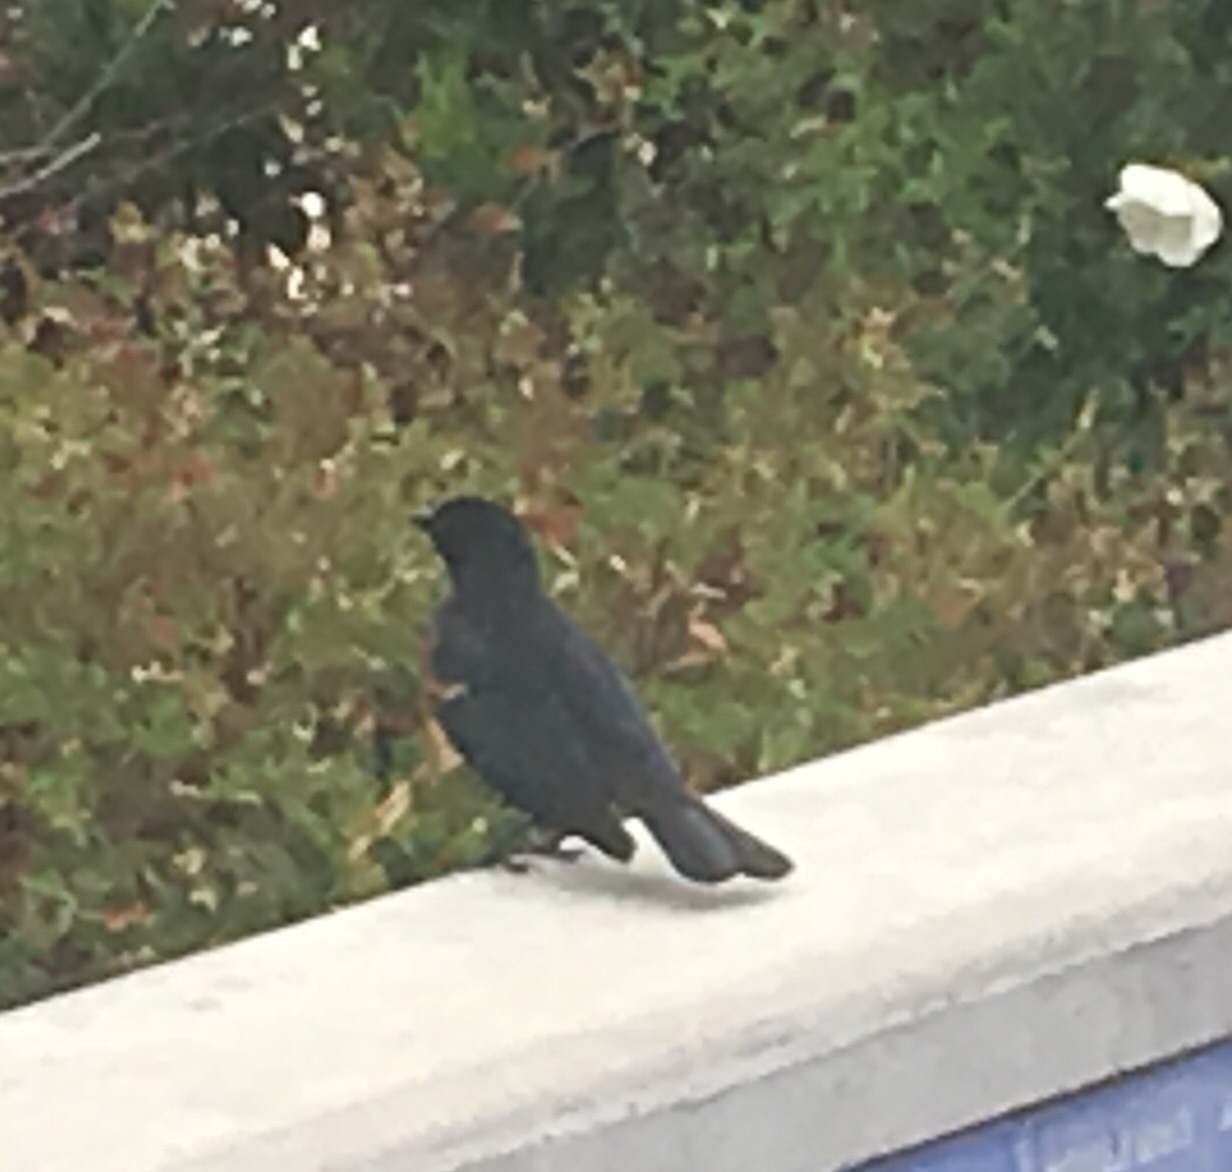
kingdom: Animalia
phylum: Chordata
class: Aves
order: Passeriformes
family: Icteridae
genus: Agelaius
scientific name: Agelaius phoeniceus
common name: Red-winged blackbird
